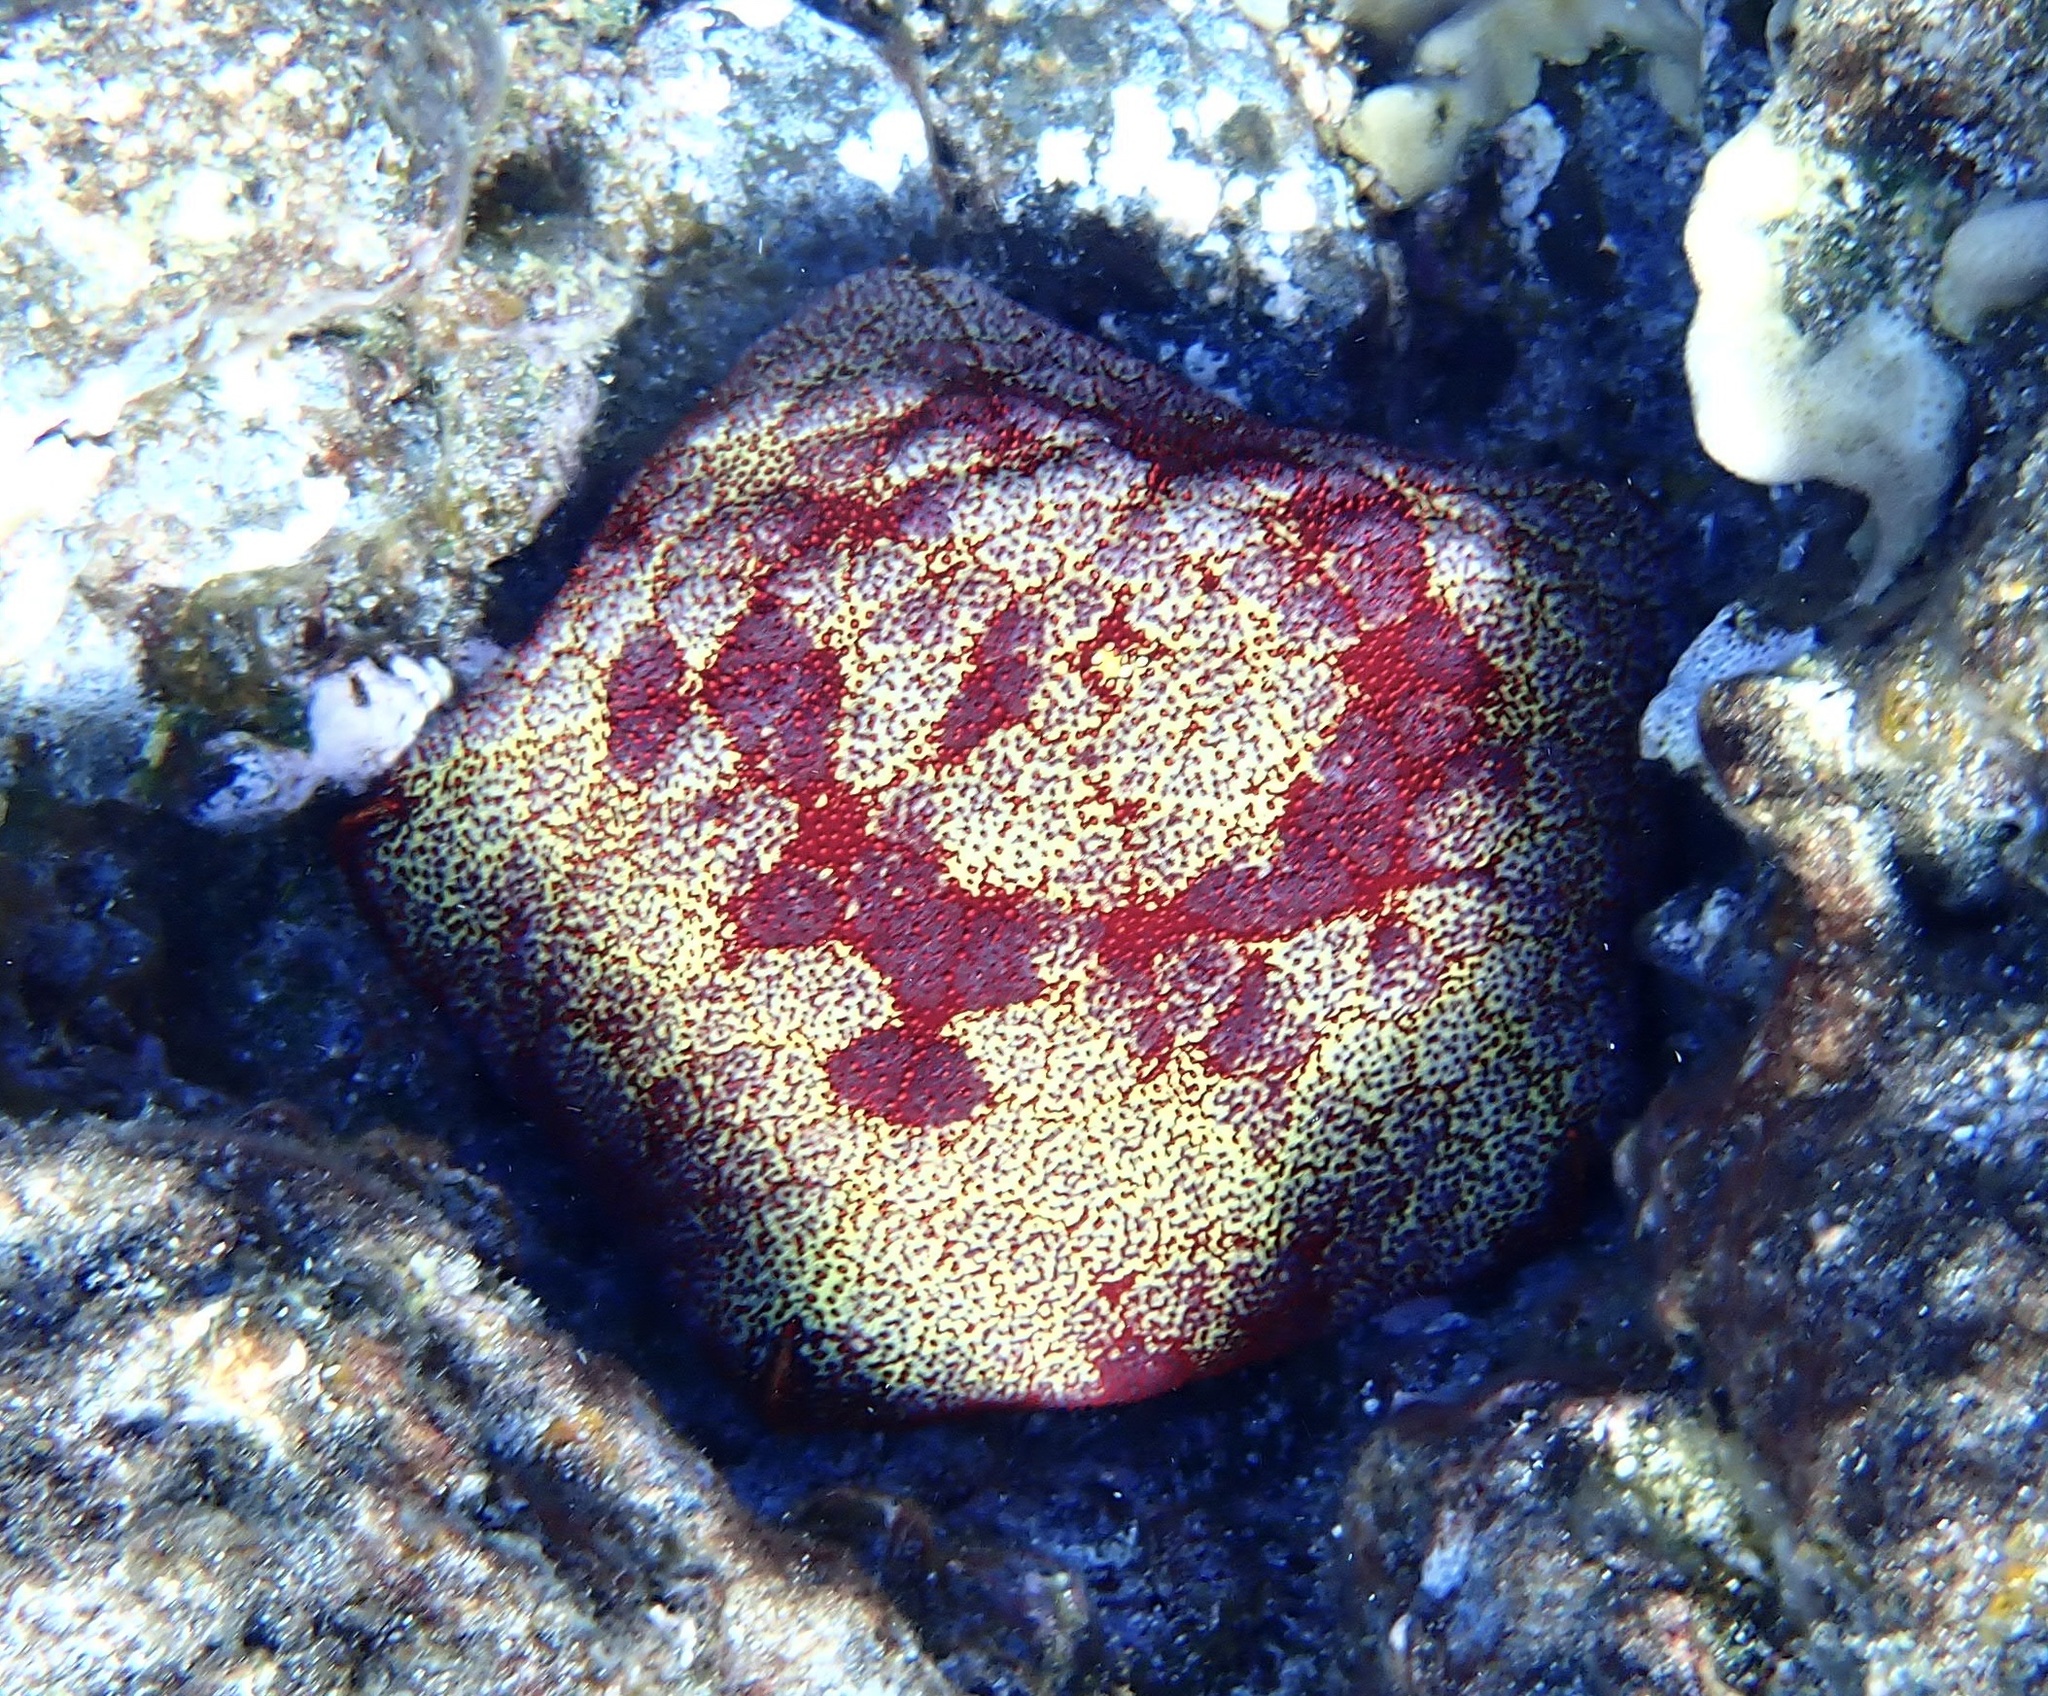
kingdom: Animalia
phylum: Echinodermata
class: Asteroidea
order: Valvatida
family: Oreasteridae
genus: Culcita
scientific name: Culcita novaeguineae
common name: Cushion star
